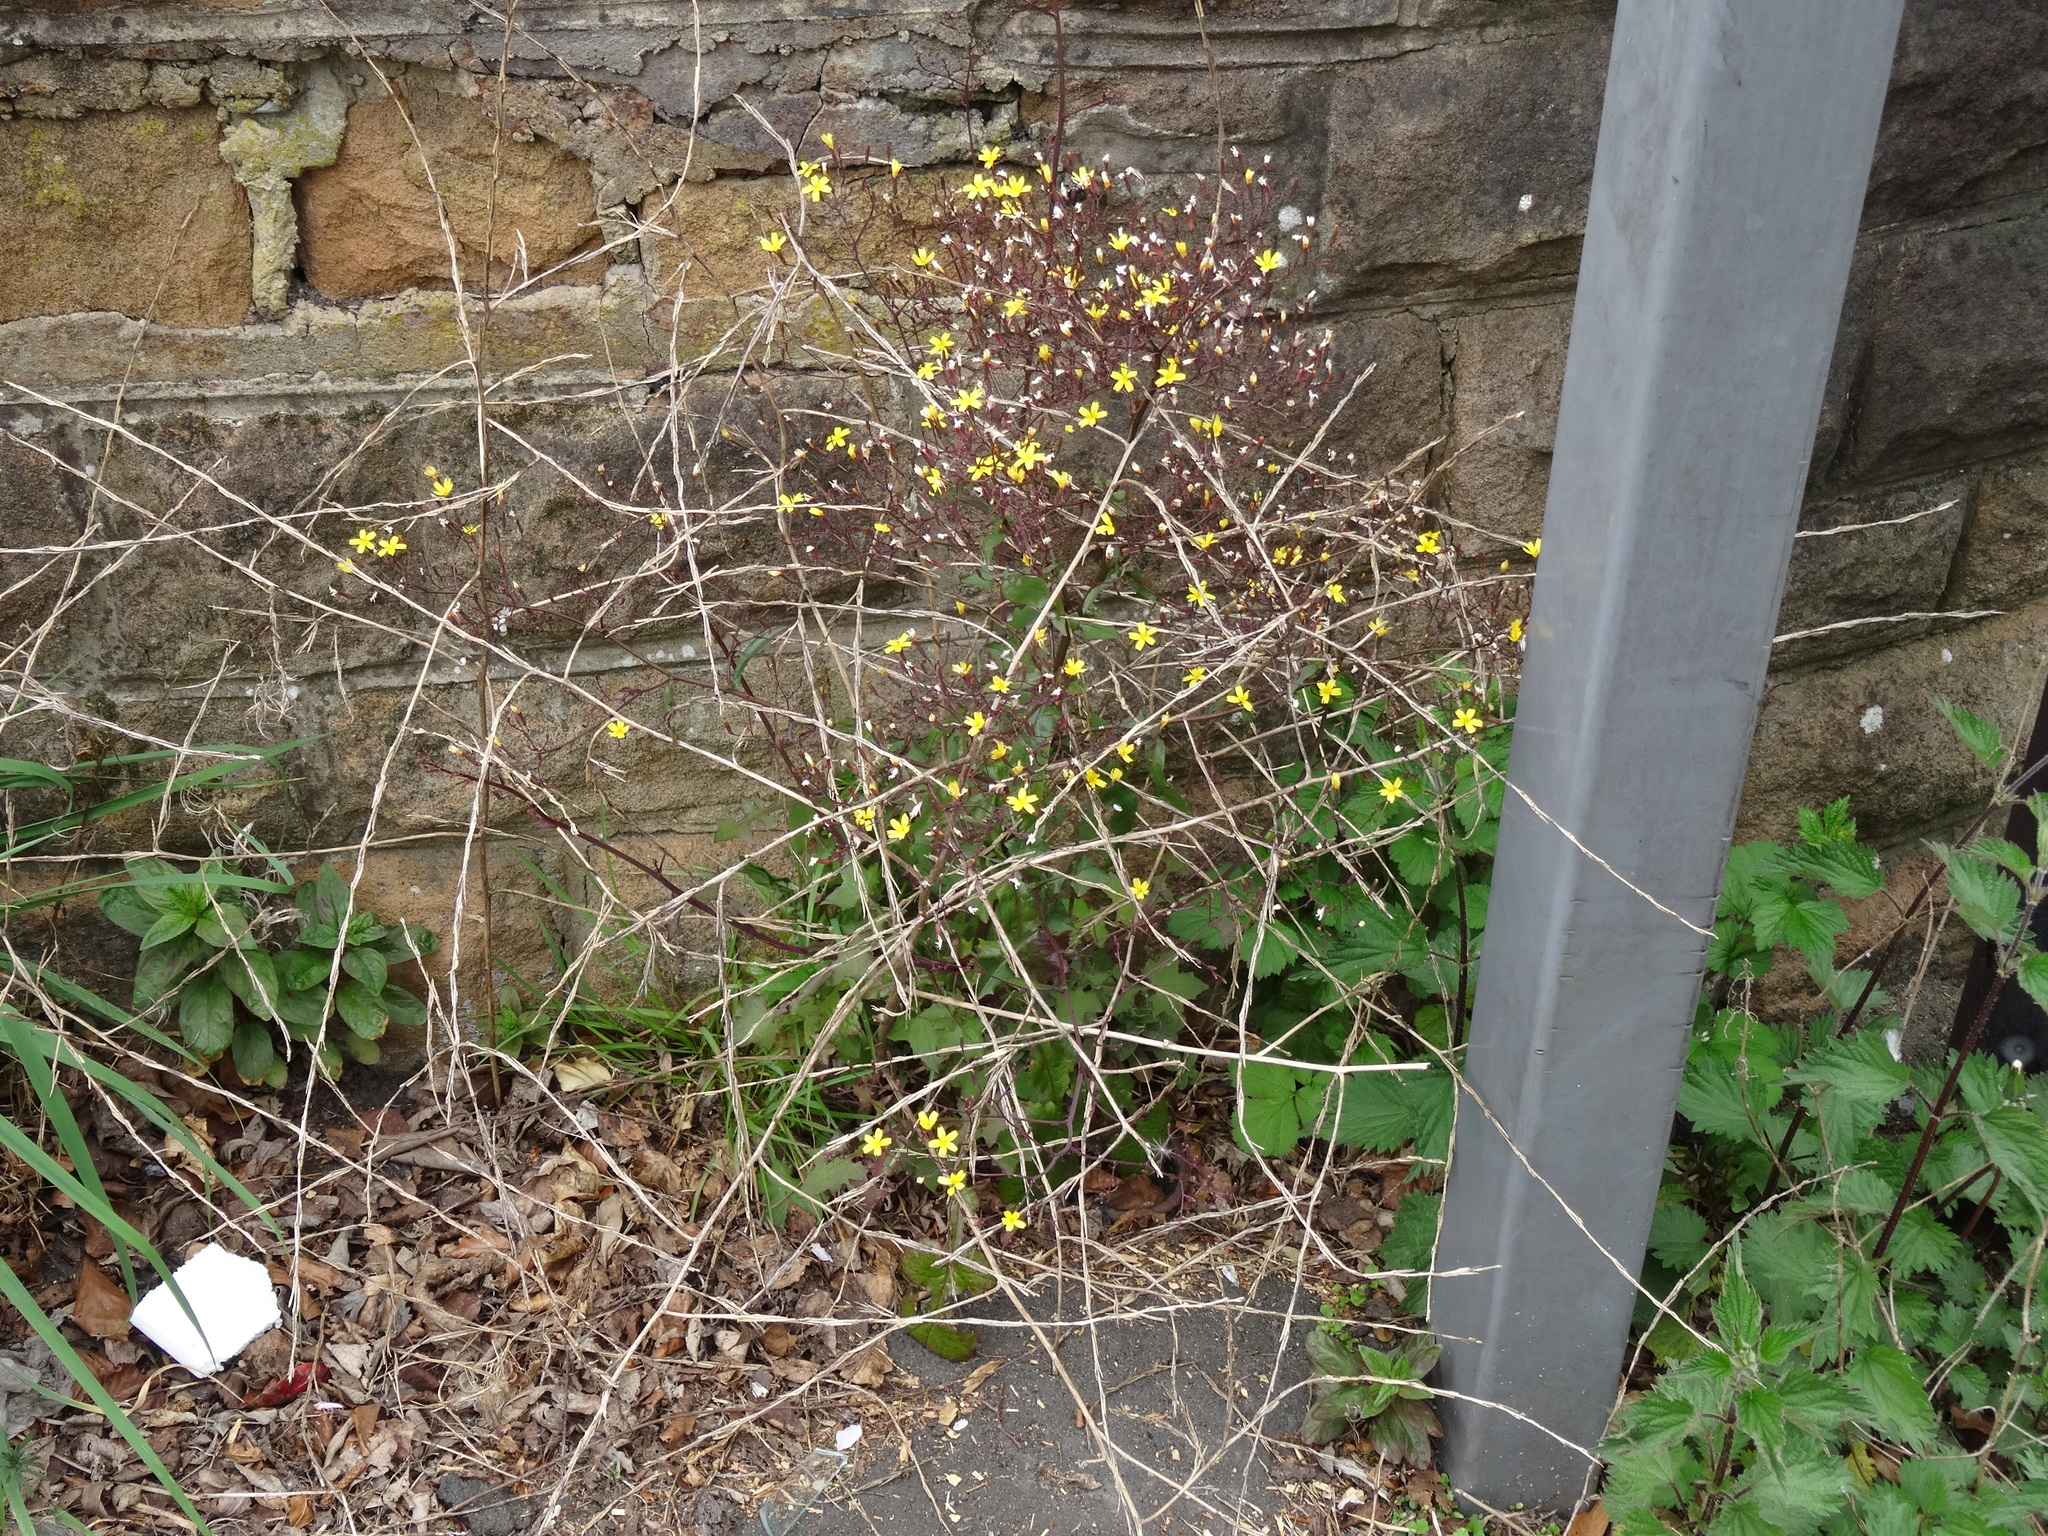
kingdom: Plantae
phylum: Tracheophyta
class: Magnoliopsida
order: Asterales
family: Asteraceae
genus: Mycelis
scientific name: Mycelis muralis
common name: Wall lettuce
